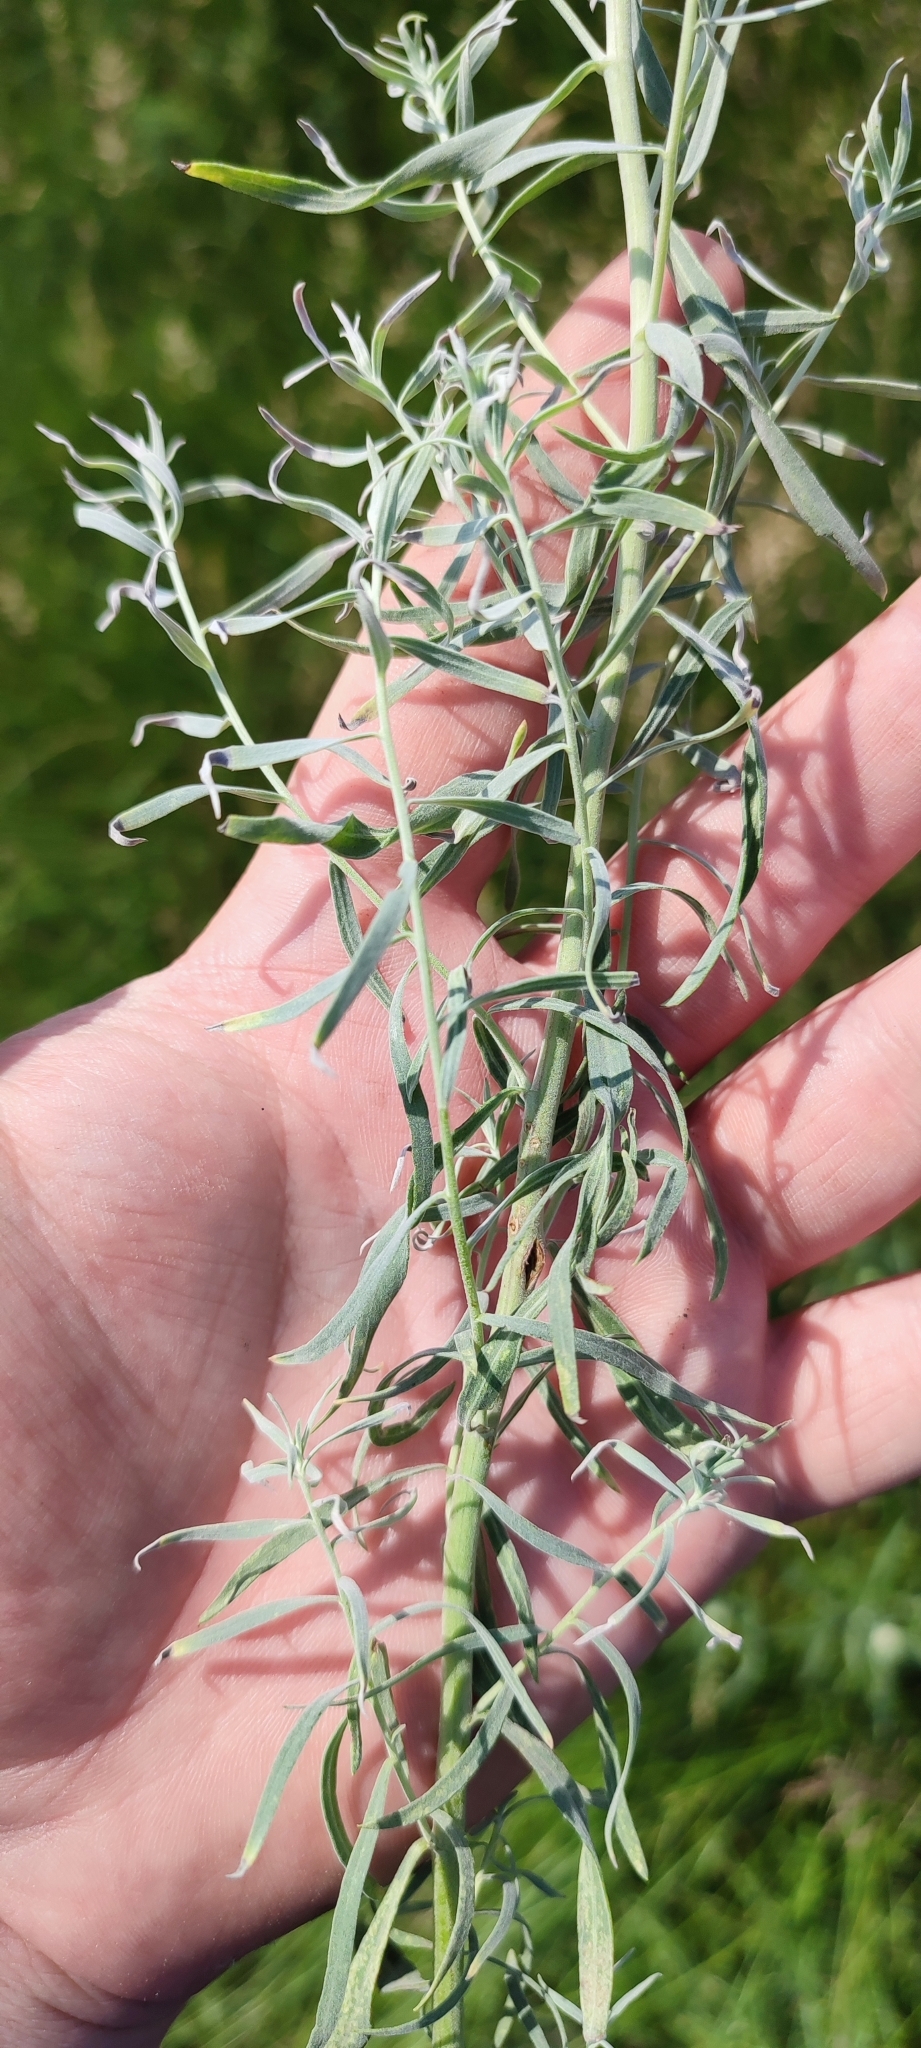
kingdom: Plantae
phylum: Tracheophyta
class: Magnoliopsida
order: Asterales
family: Asteraceae
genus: Artemisia
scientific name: Artemisia glauca
